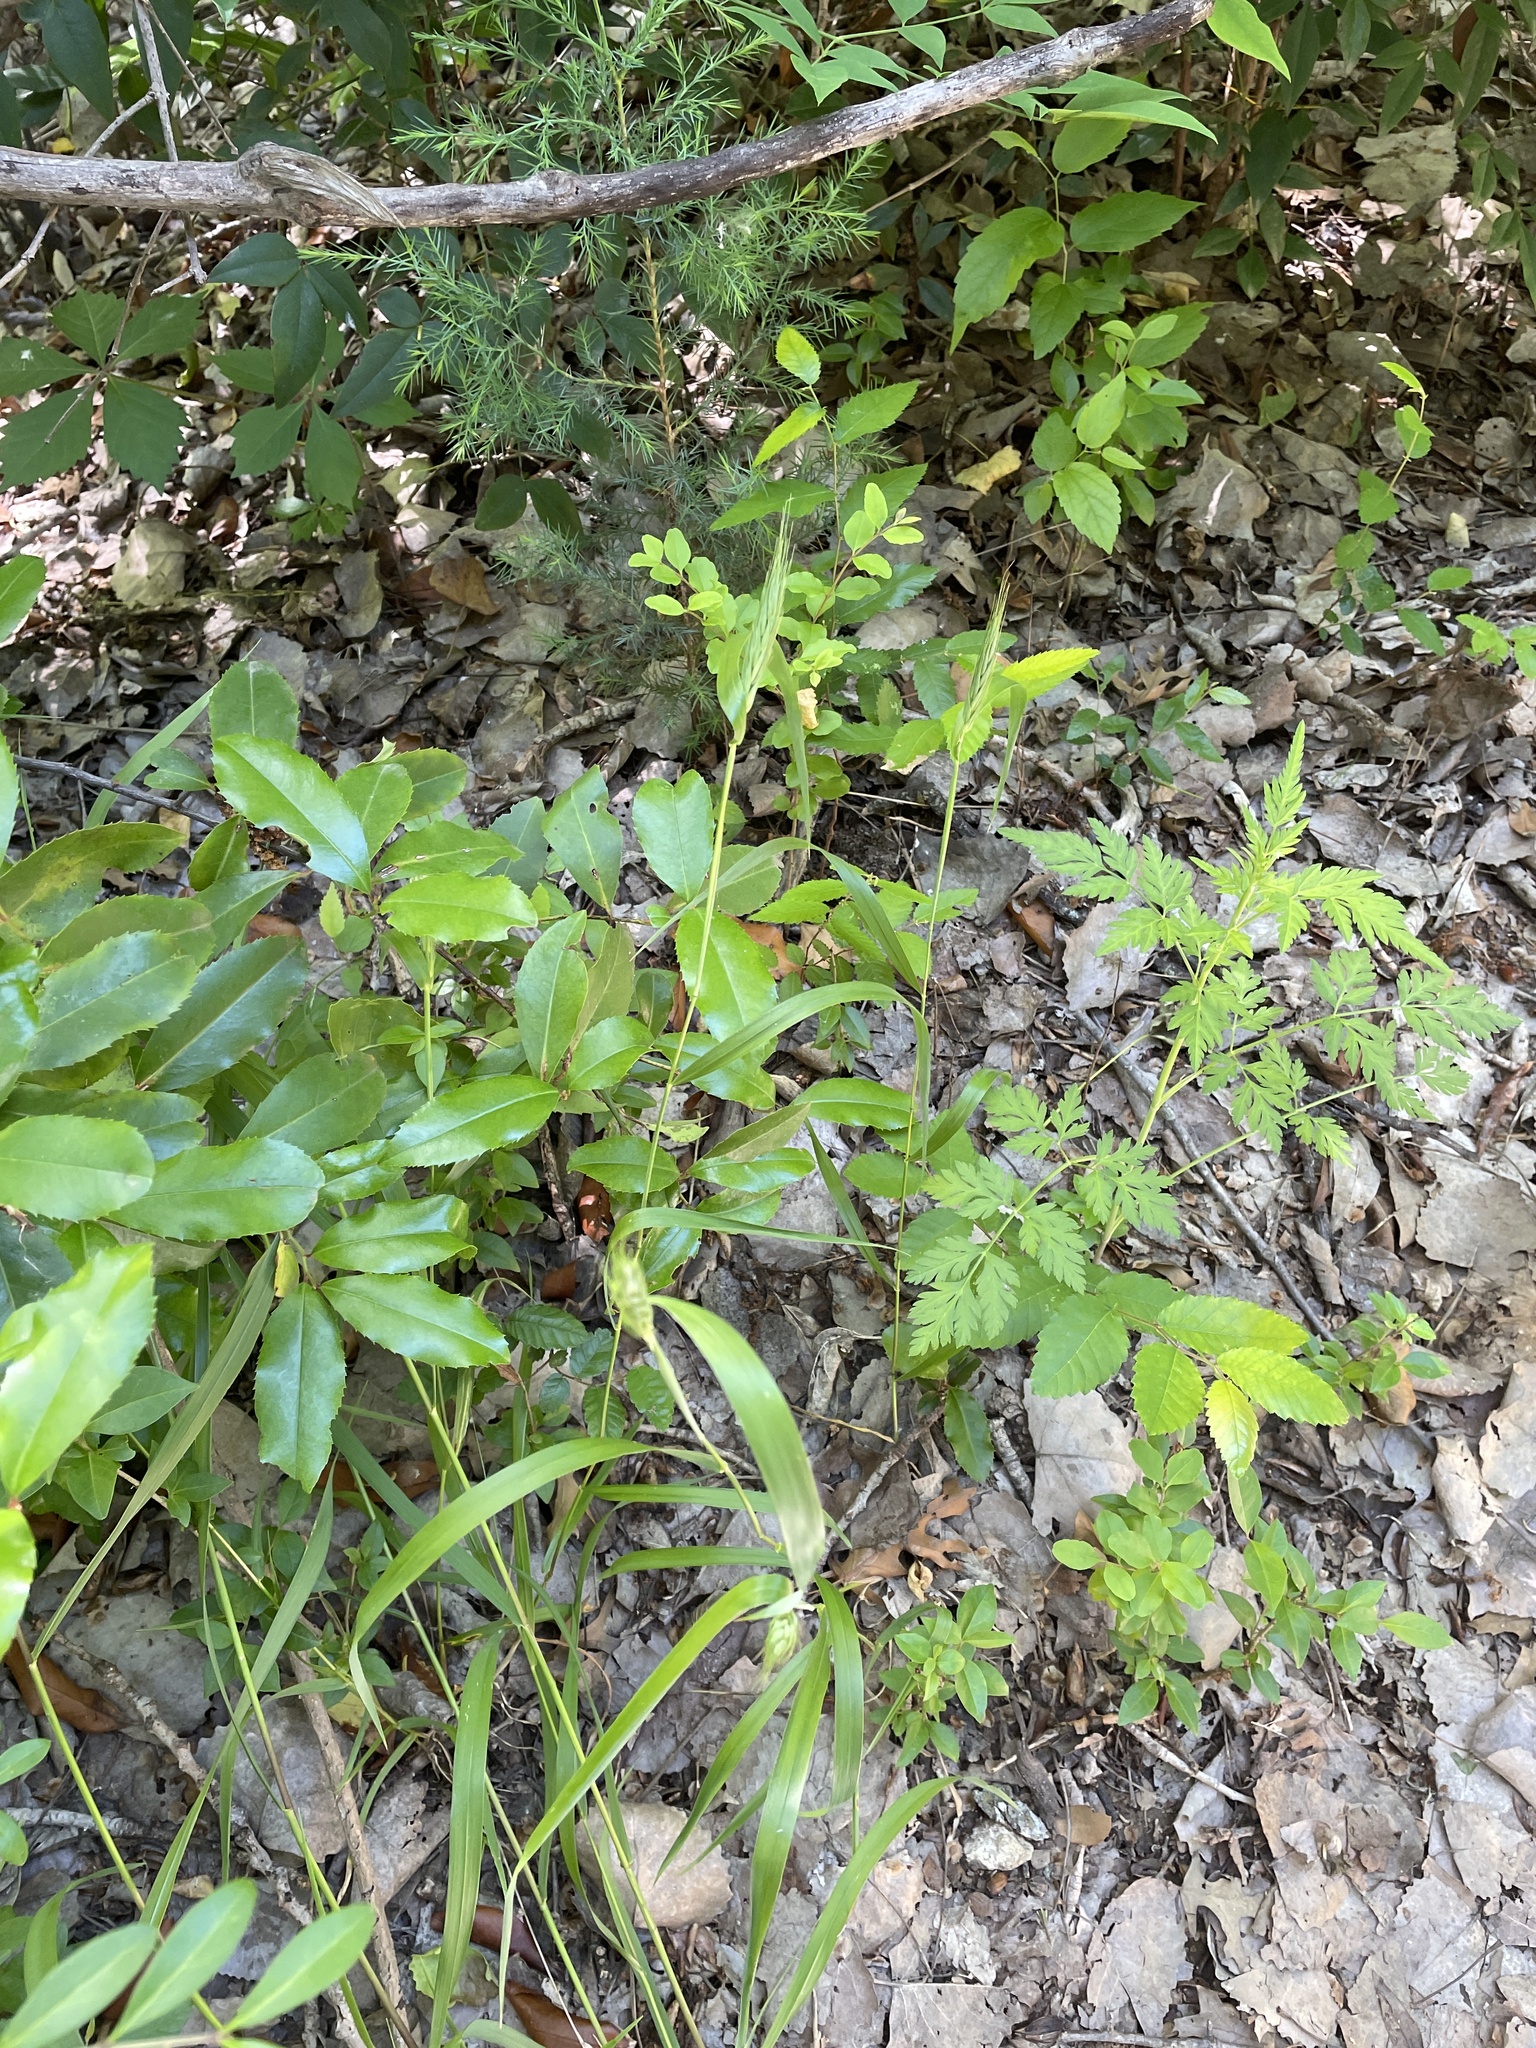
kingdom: Plantae
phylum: Tracheophyta
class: Liliopsida
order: Poales
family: Poaceae
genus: Elymus
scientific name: Elymus virginicus
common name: Common eastern wildrye
